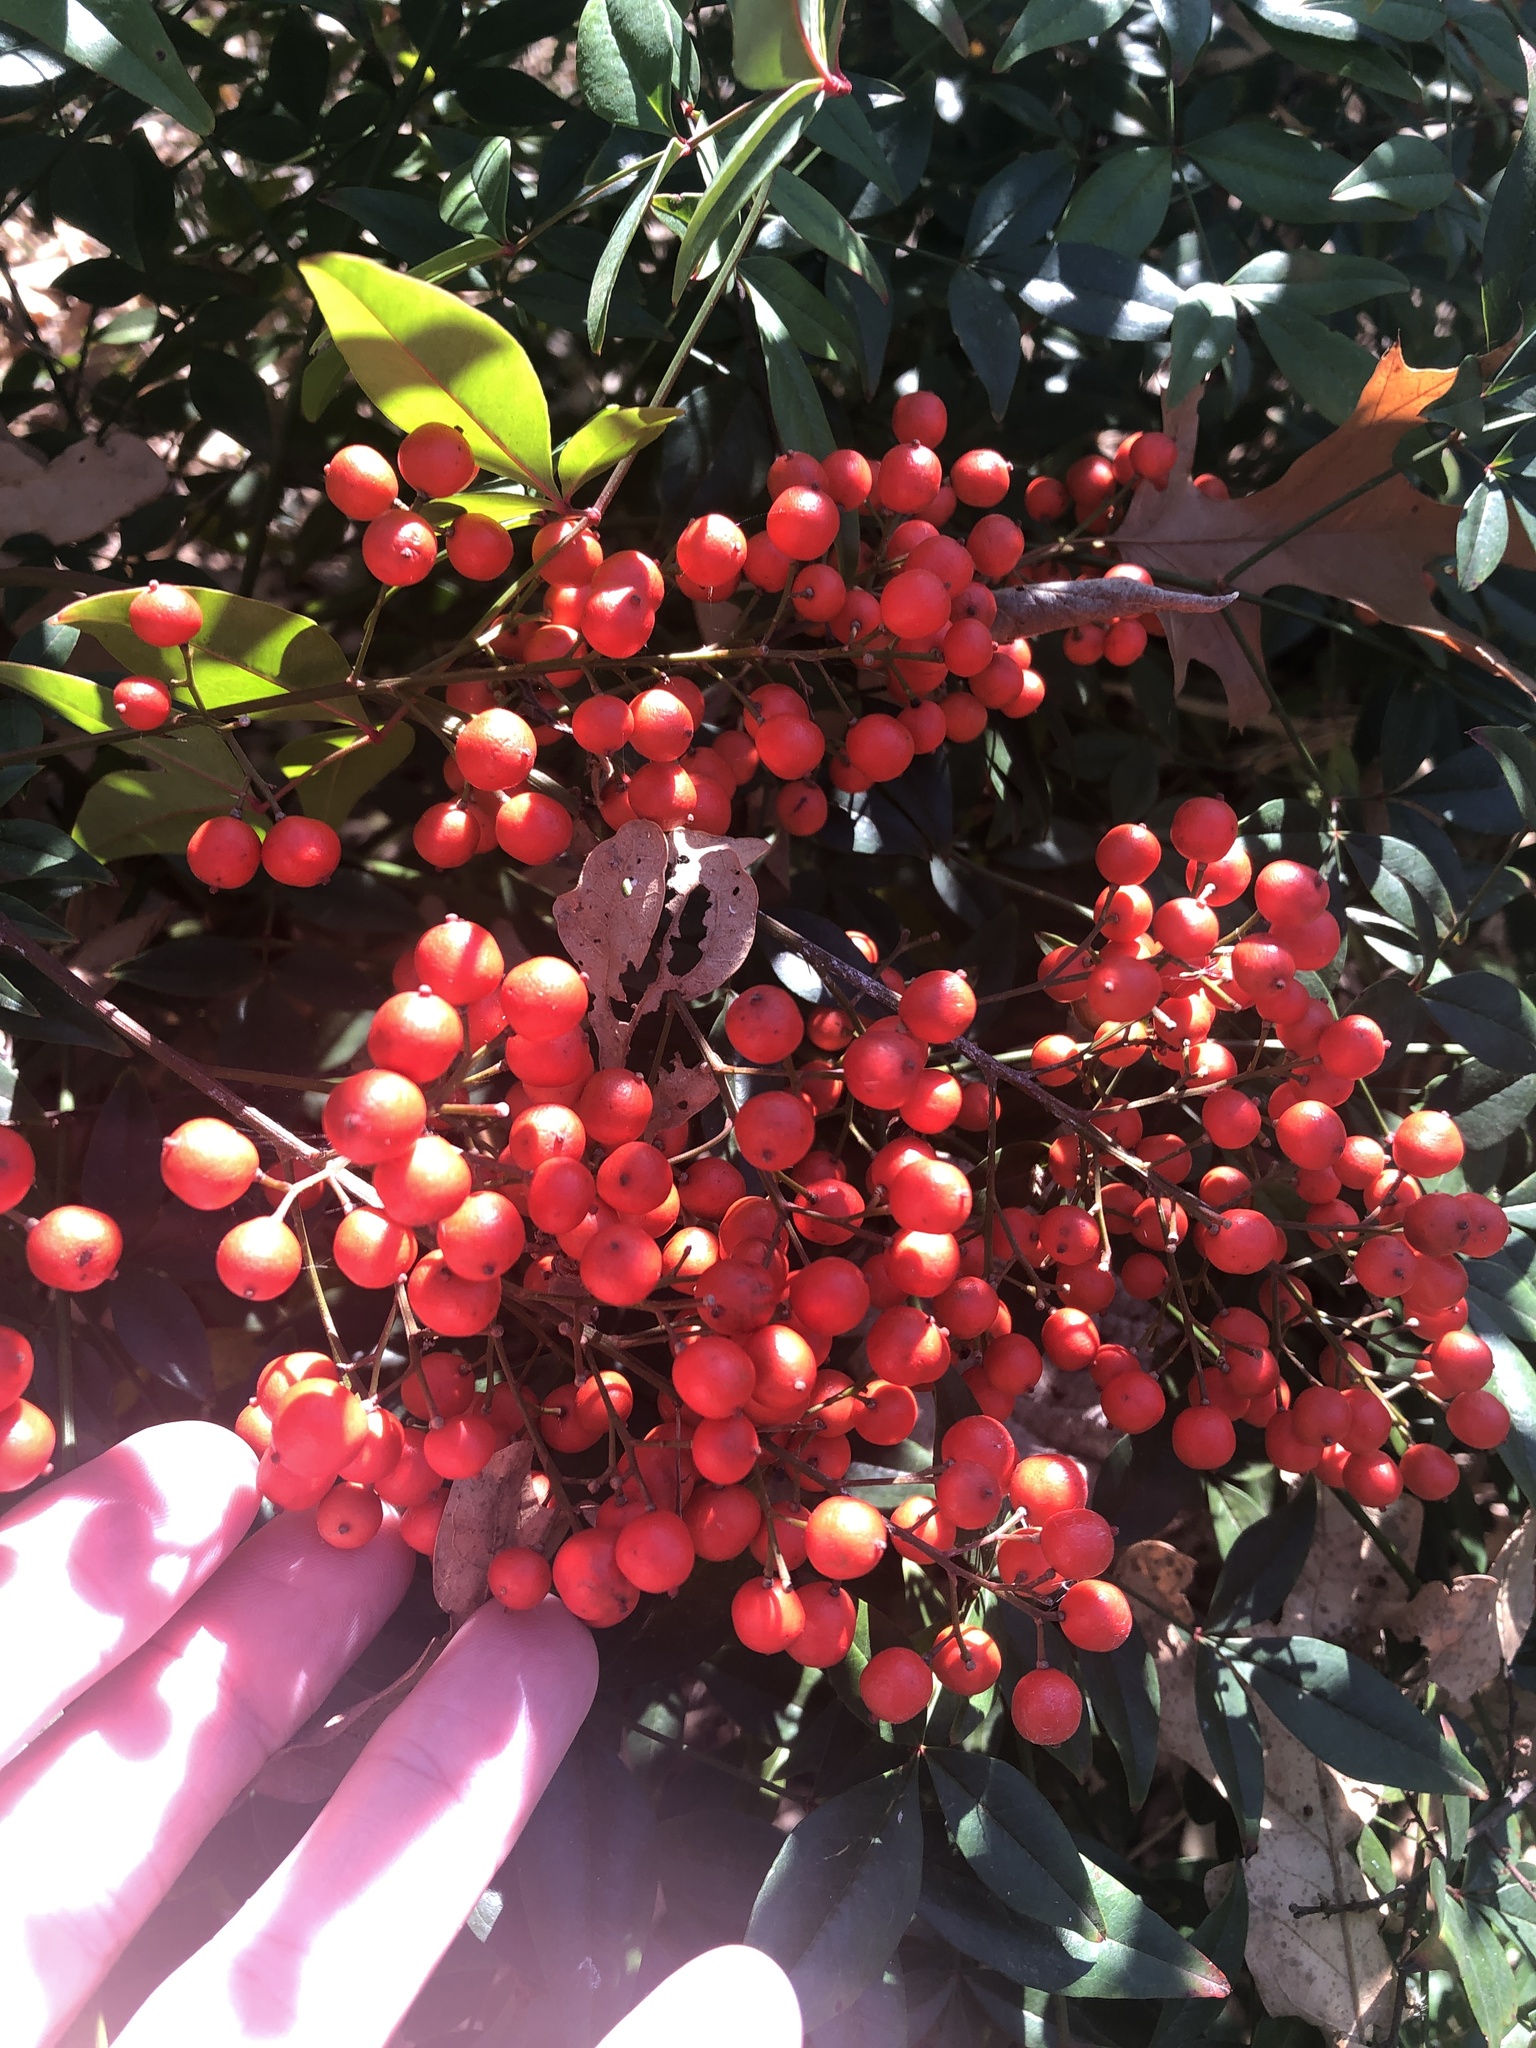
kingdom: Plantae
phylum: Tracheophyta
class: Magnoliopsida
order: Ranunculales
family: Berberidaceae
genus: Nandina
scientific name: Nandina domestica
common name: Sacred bamboo
